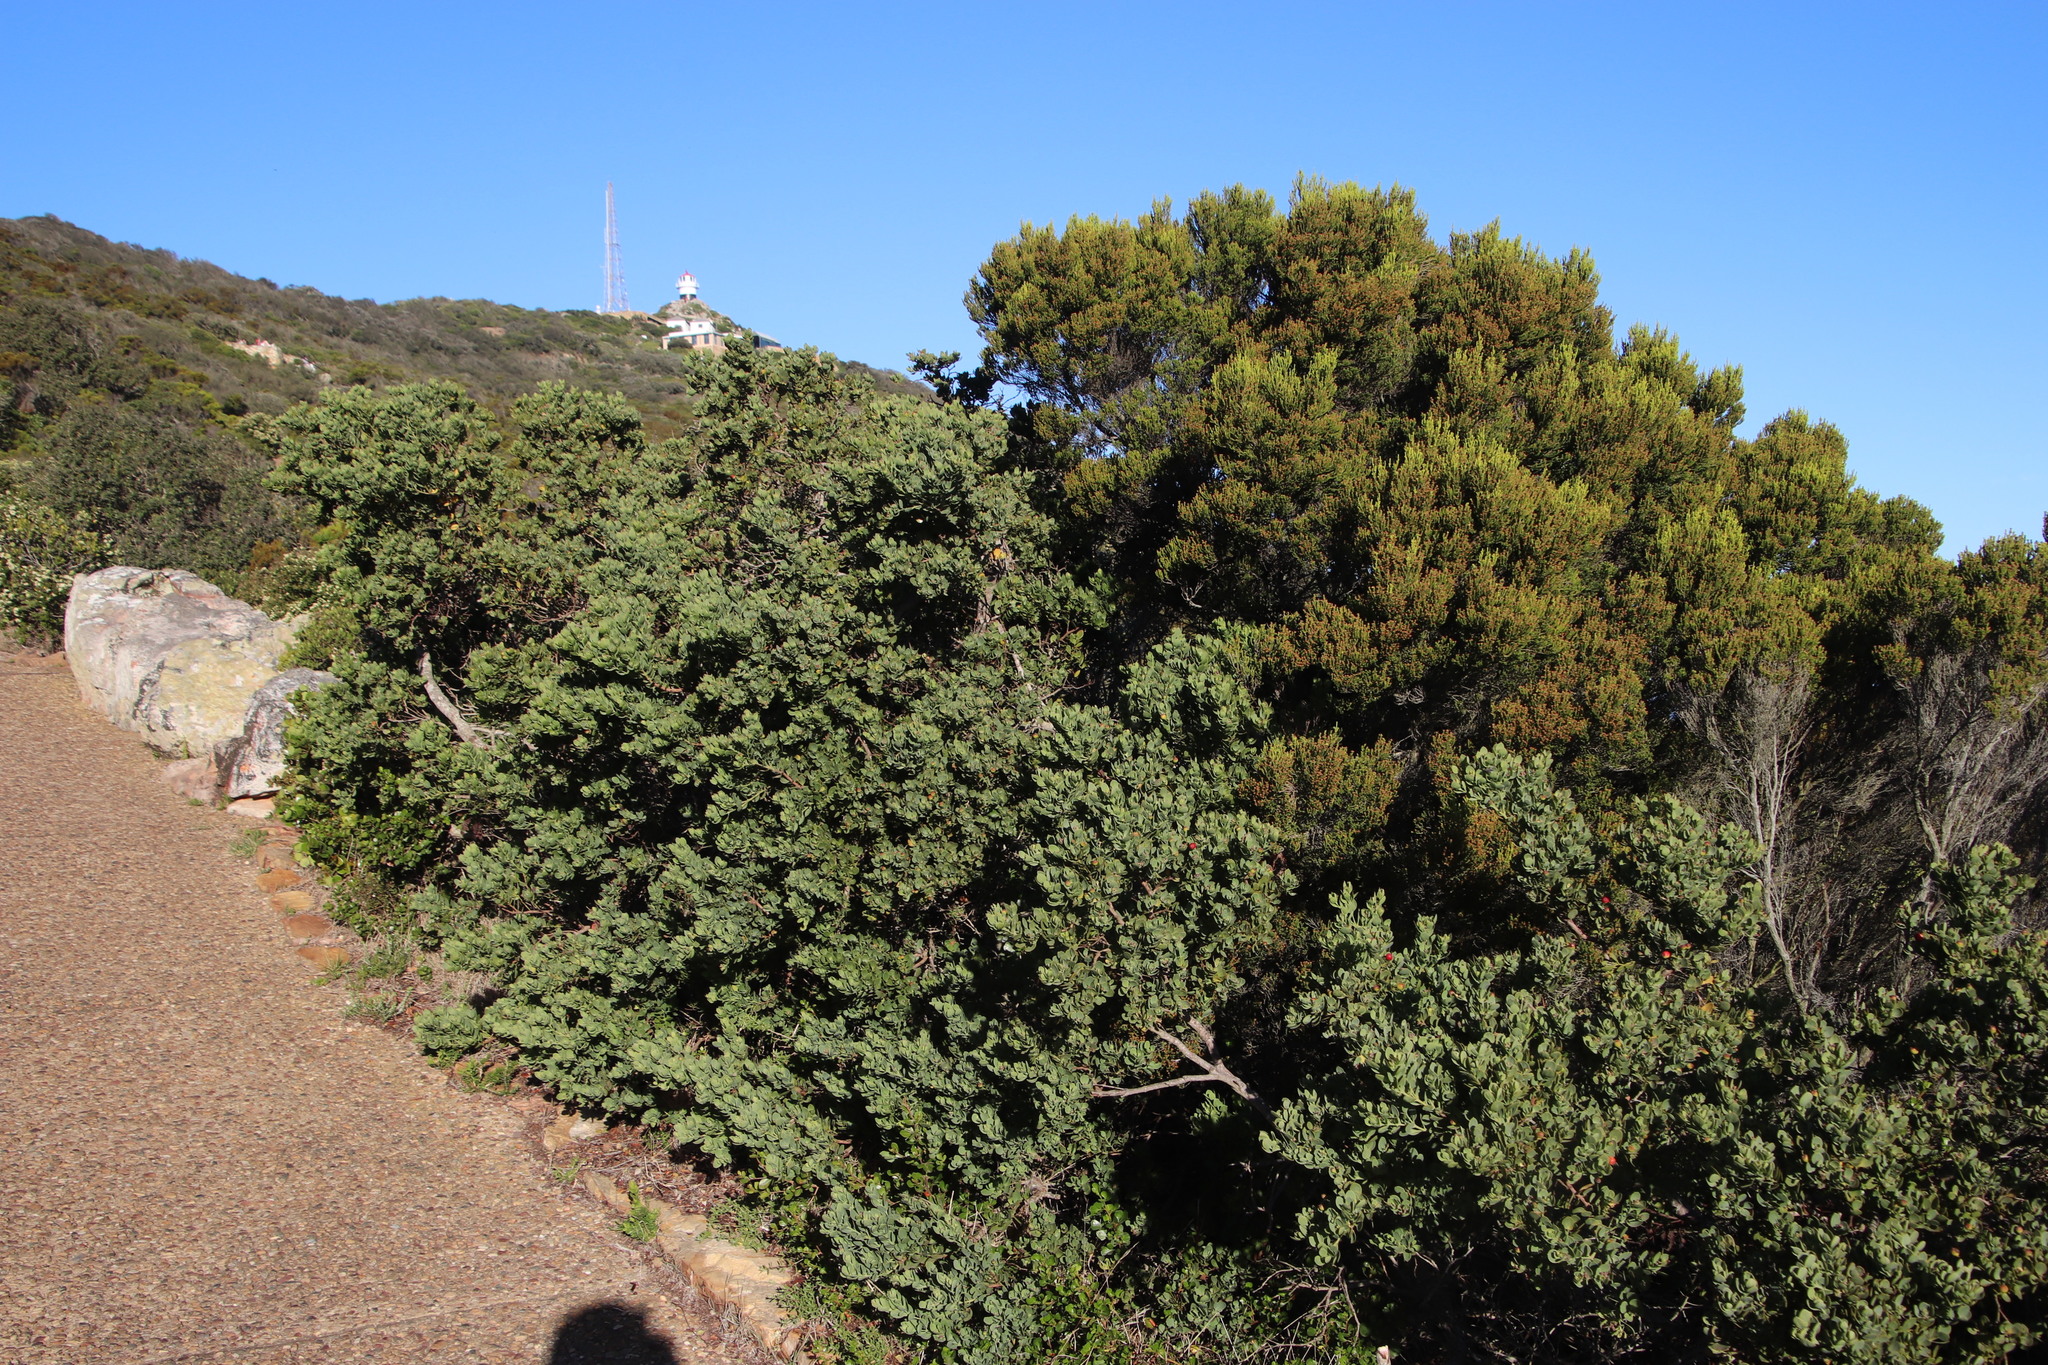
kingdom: Plantae
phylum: Tracheophyta
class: Magnoliopsida
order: Ericales
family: Ericaceae
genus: Erica
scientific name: Erica tristis
